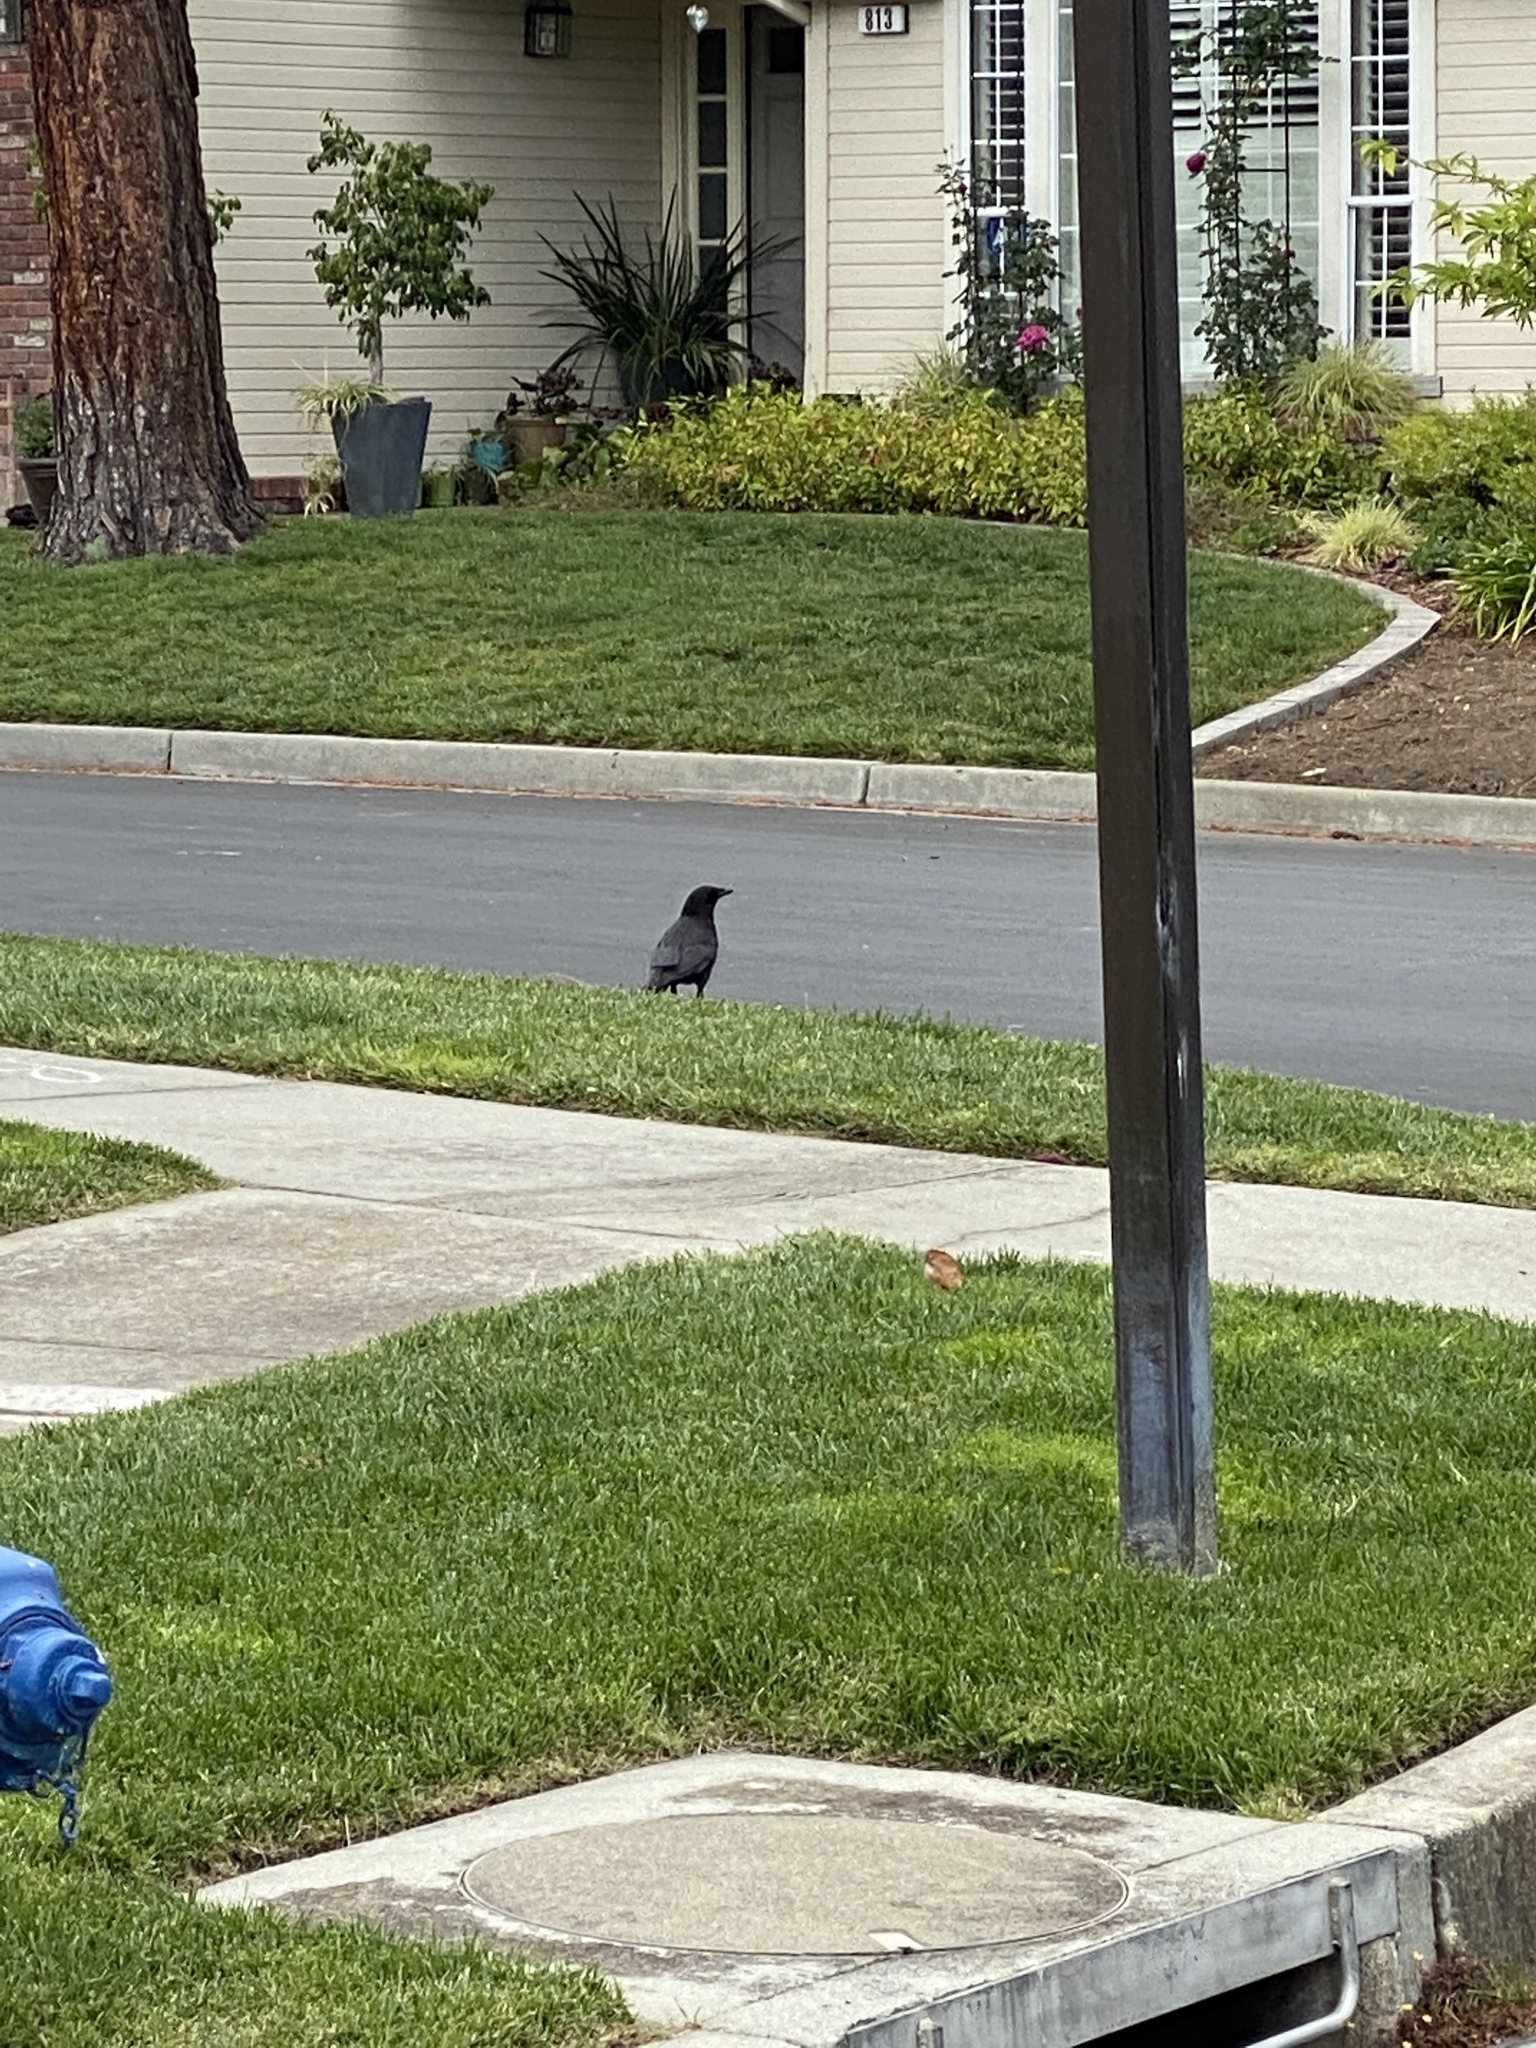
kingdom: Animalia
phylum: Chordata
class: Aves
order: Passeriformes
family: Corvidae
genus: Corvus
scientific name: Corvus brachyrhynchos
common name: American crow
